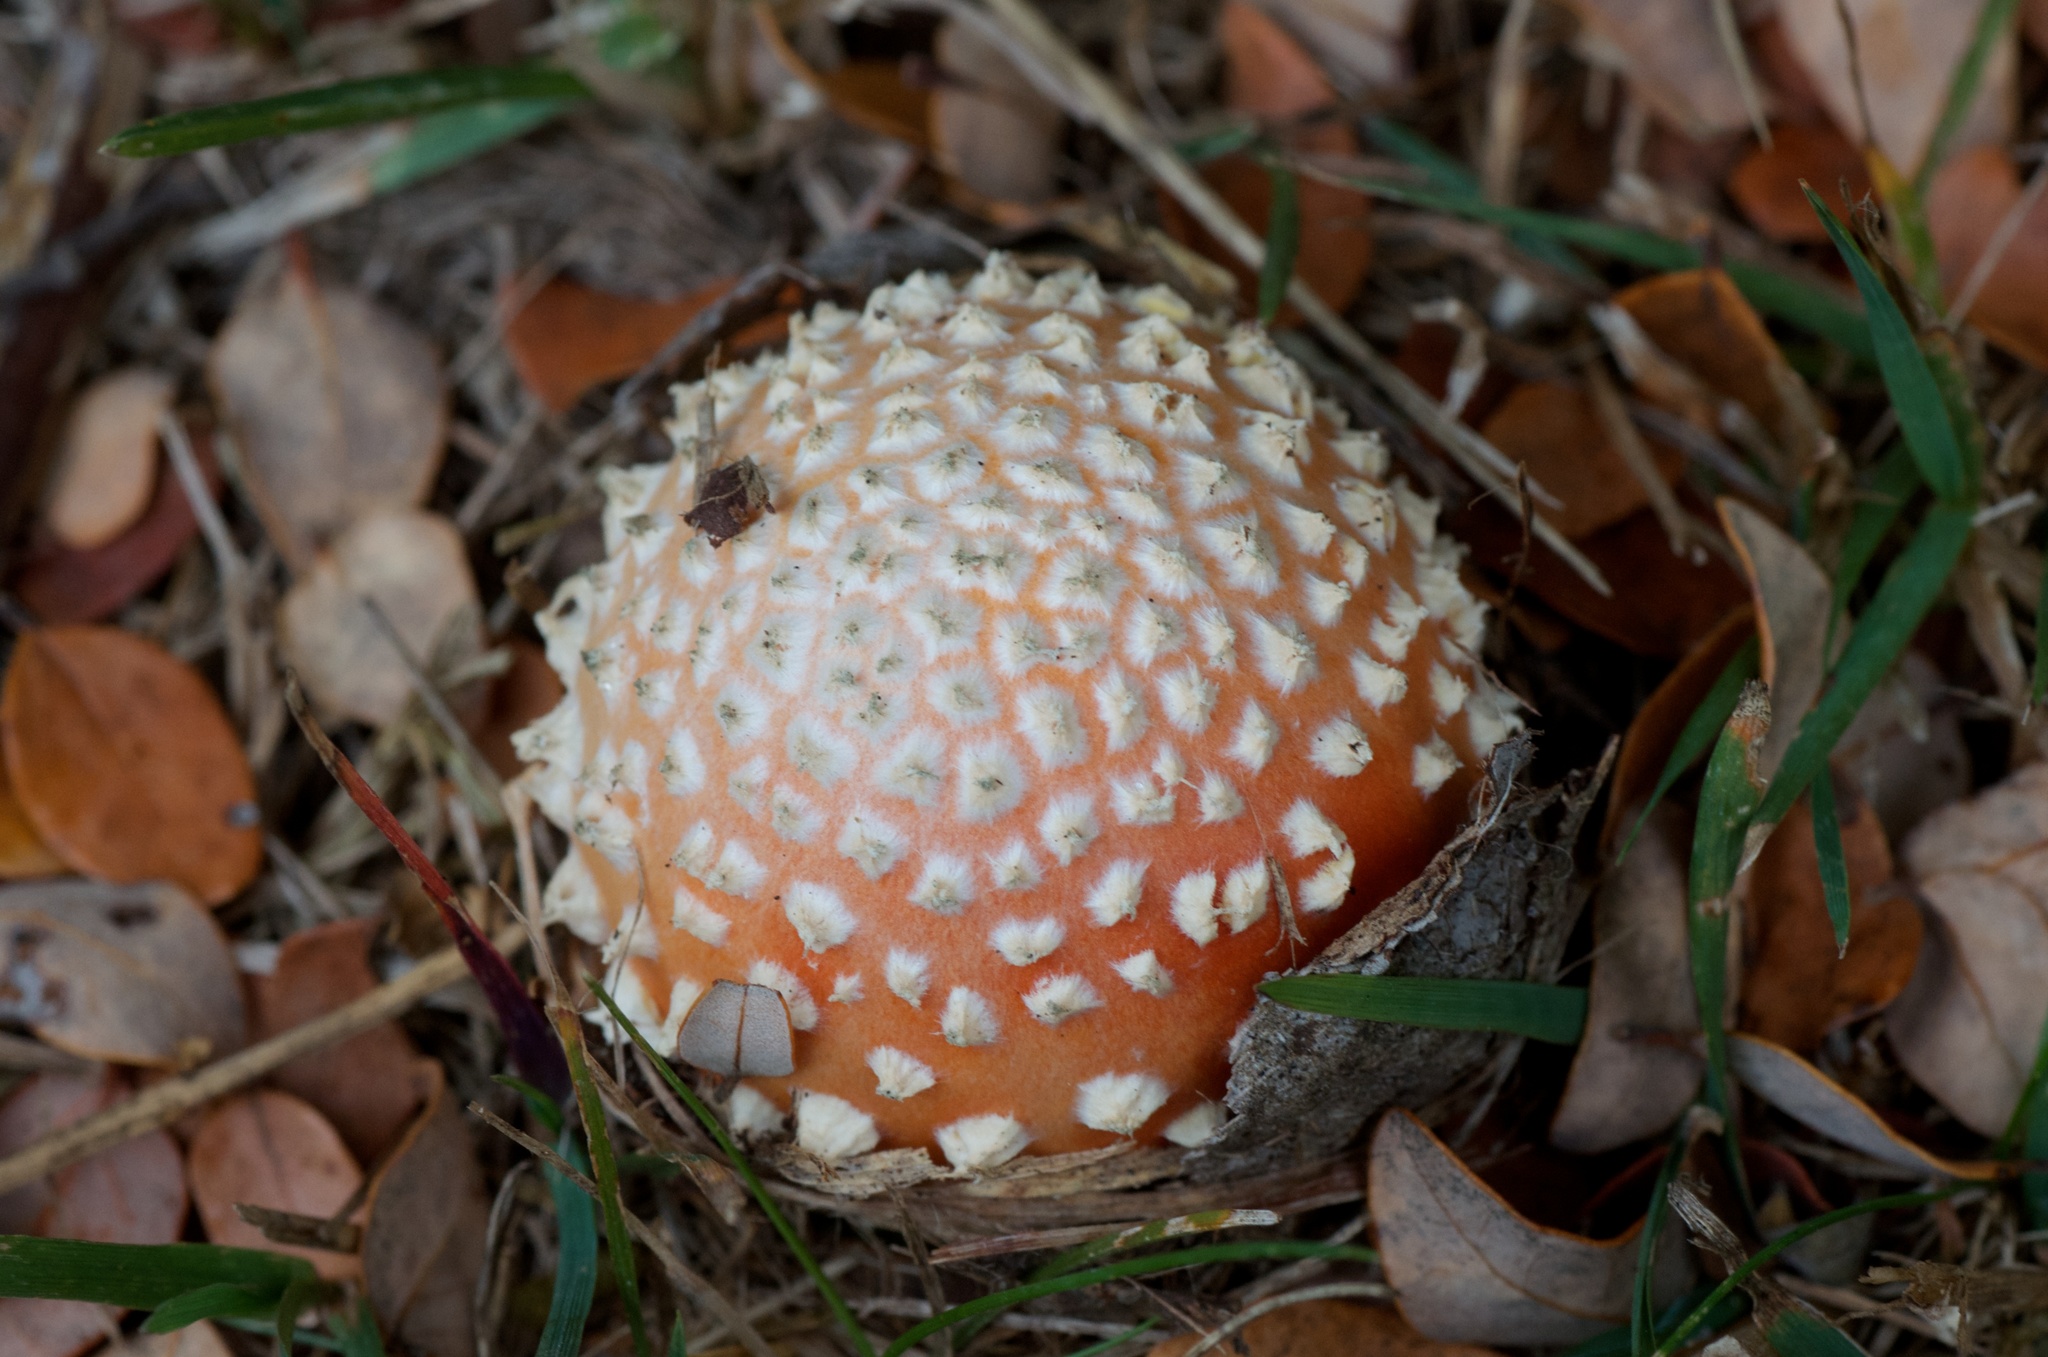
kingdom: Fungi
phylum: Basidiomycota
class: Agaricomycetes
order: Agaricales
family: Amanitaceae
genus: Amanita
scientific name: Amanita muscaria
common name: Fly agaric
